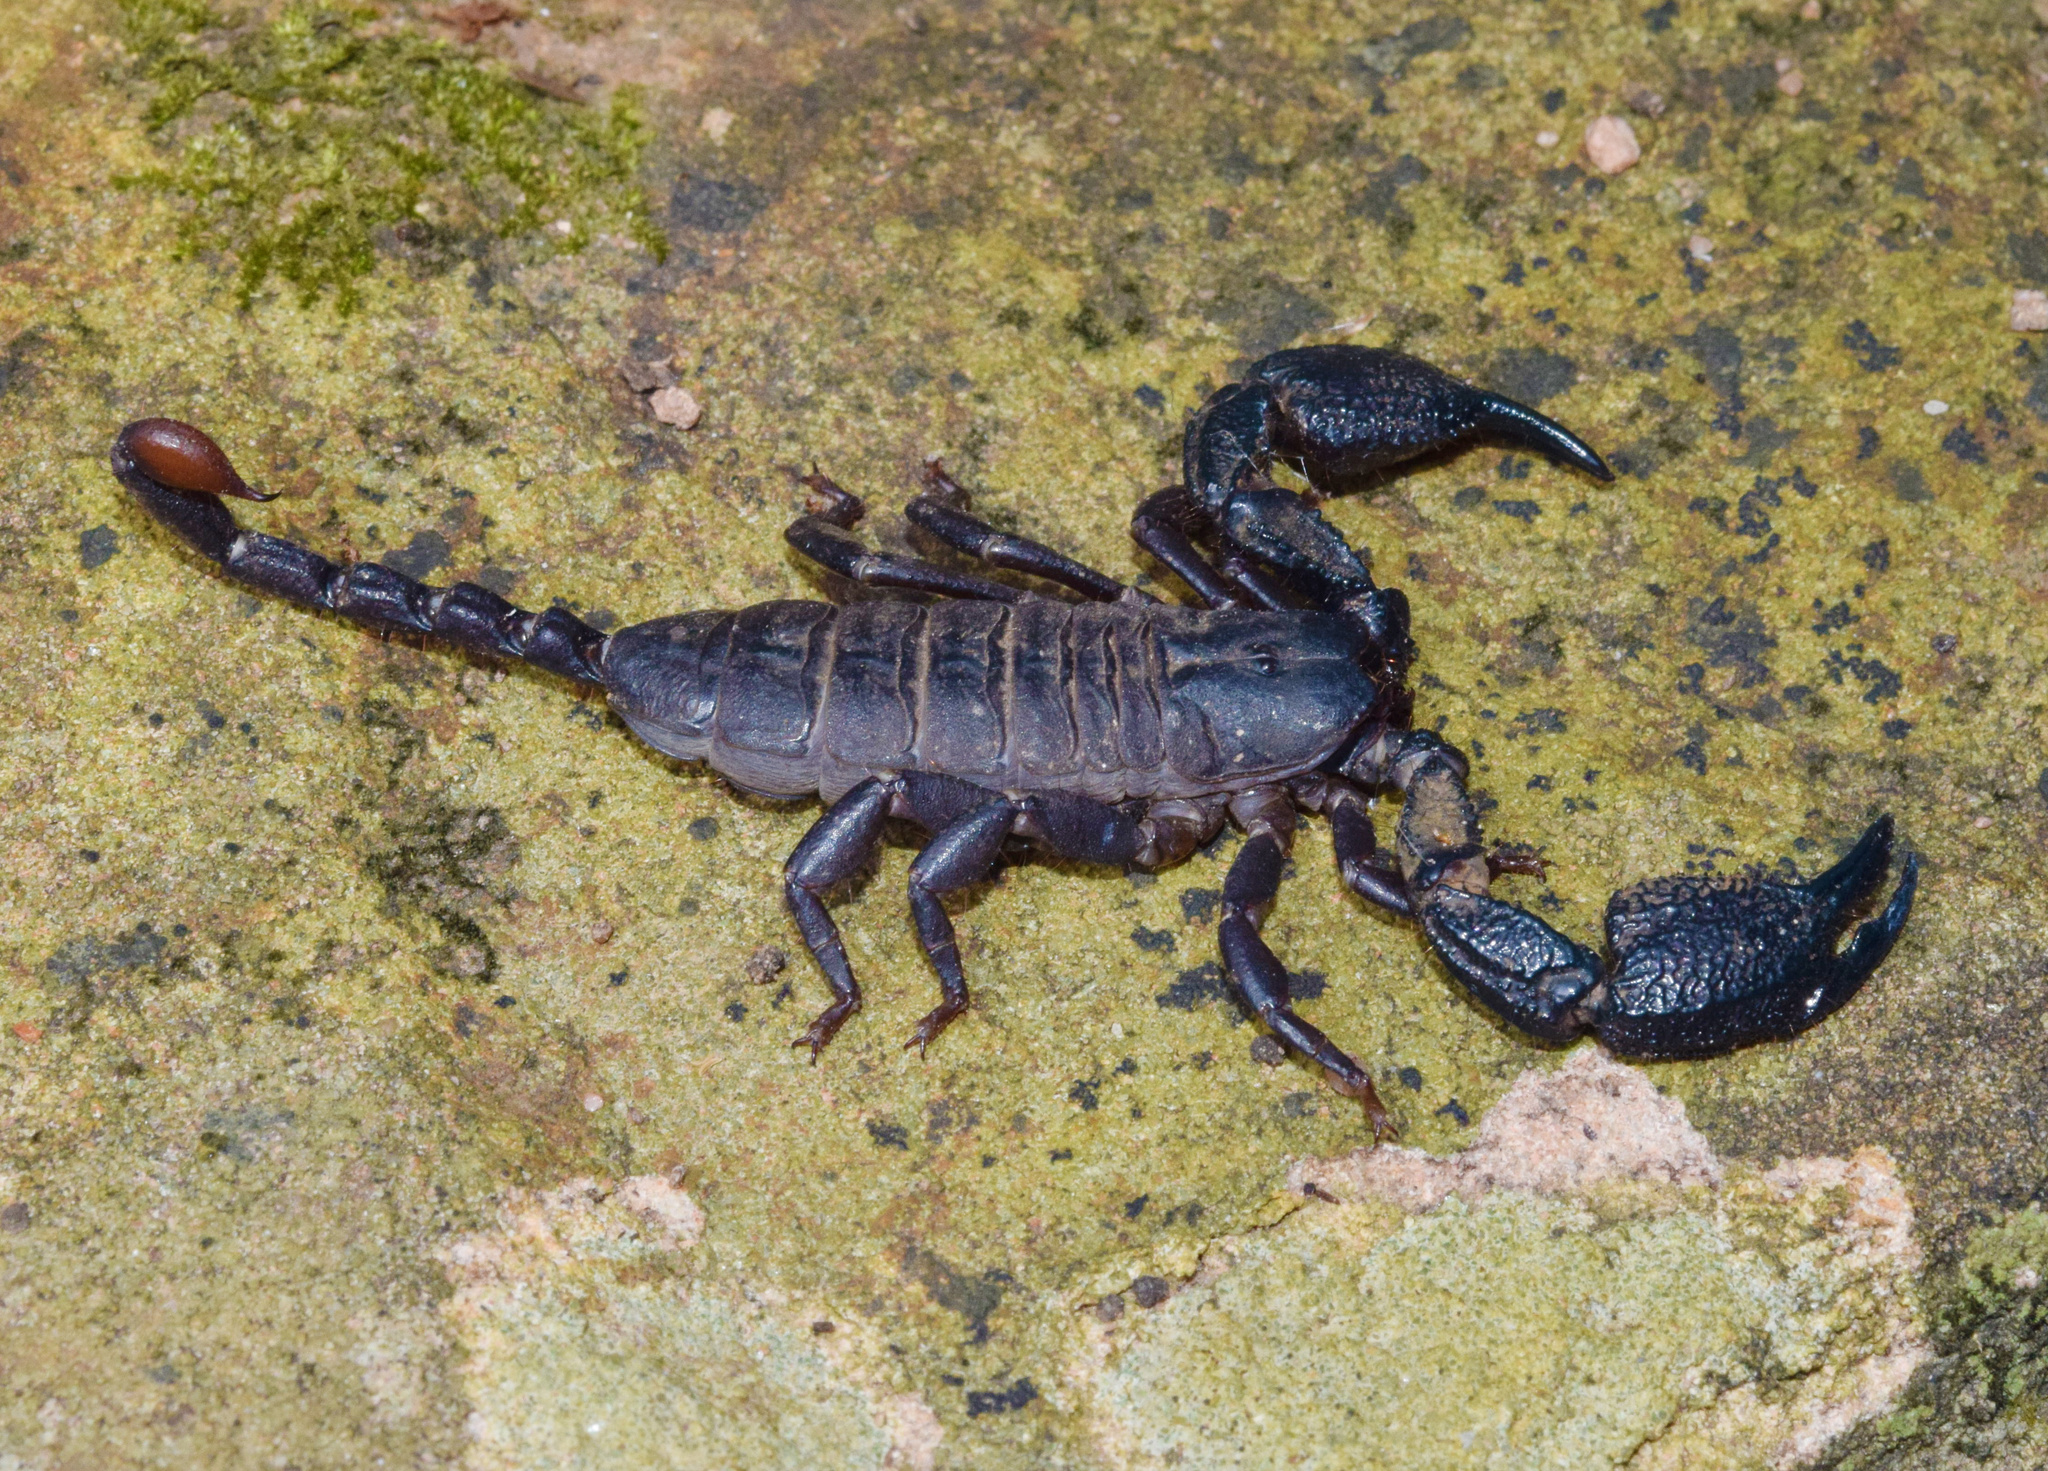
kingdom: Animalia
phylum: Arthropoda
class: Arachnida
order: Scorpiones
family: Hormuridae
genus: Opisthacanthus
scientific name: Opisthacanthus validus
